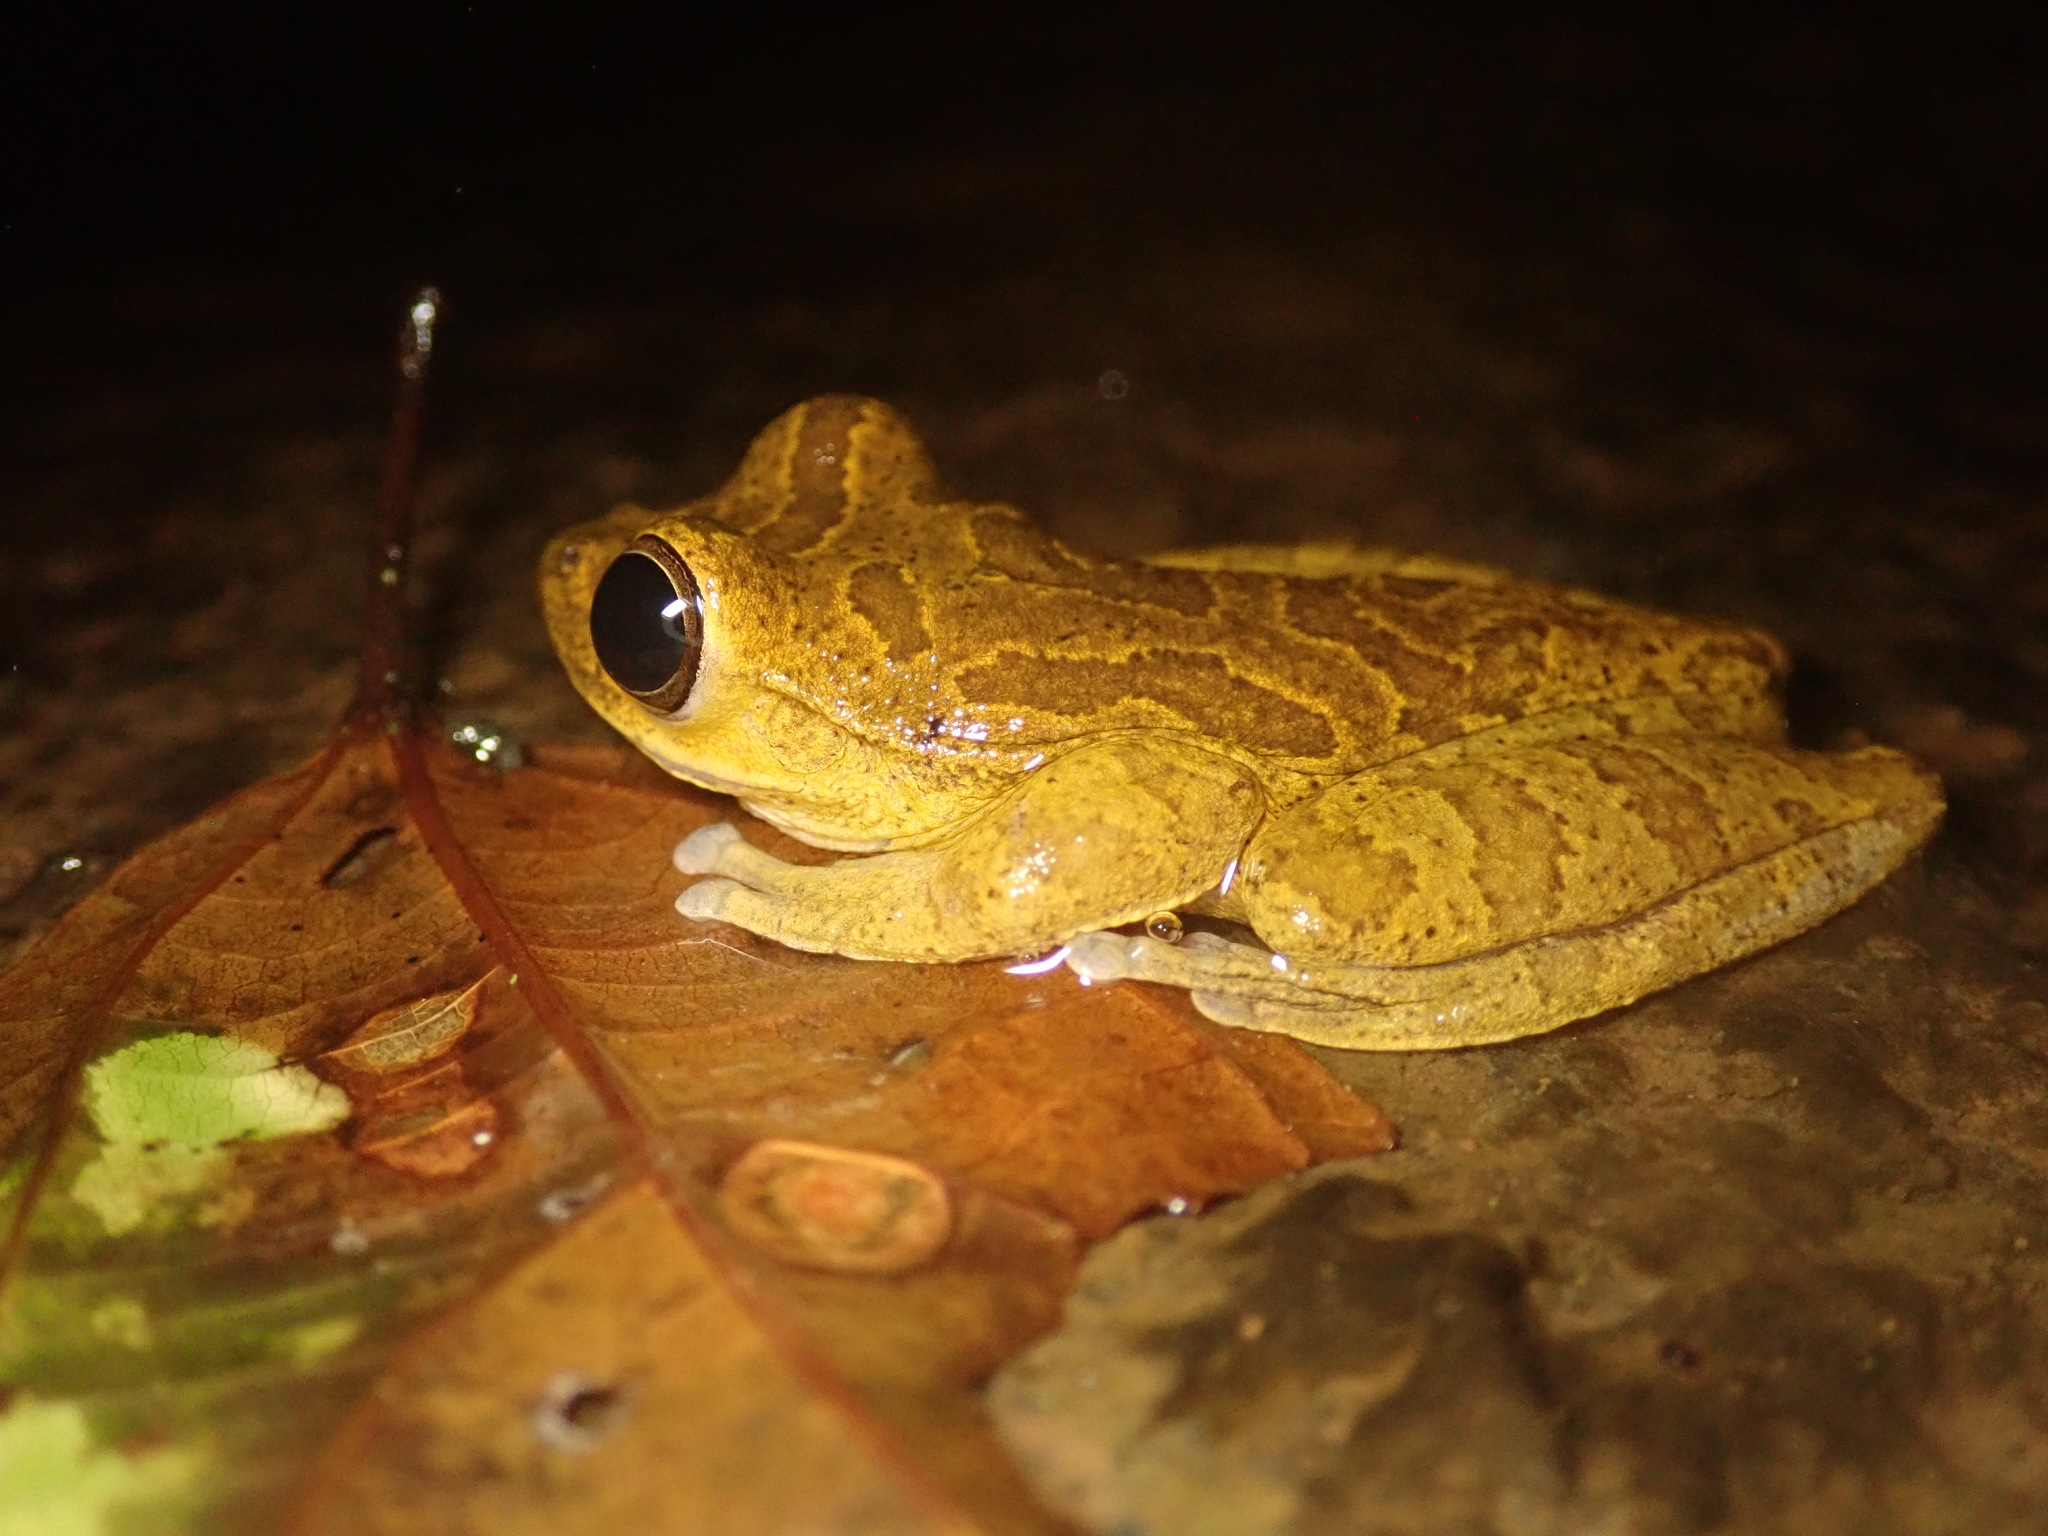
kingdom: Animalia
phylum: Chordata
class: Amphibia
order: Anura
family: Hylidae
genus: Smilisca
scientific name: Smilisca sordida
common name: Veragua cross-banded treefrog
